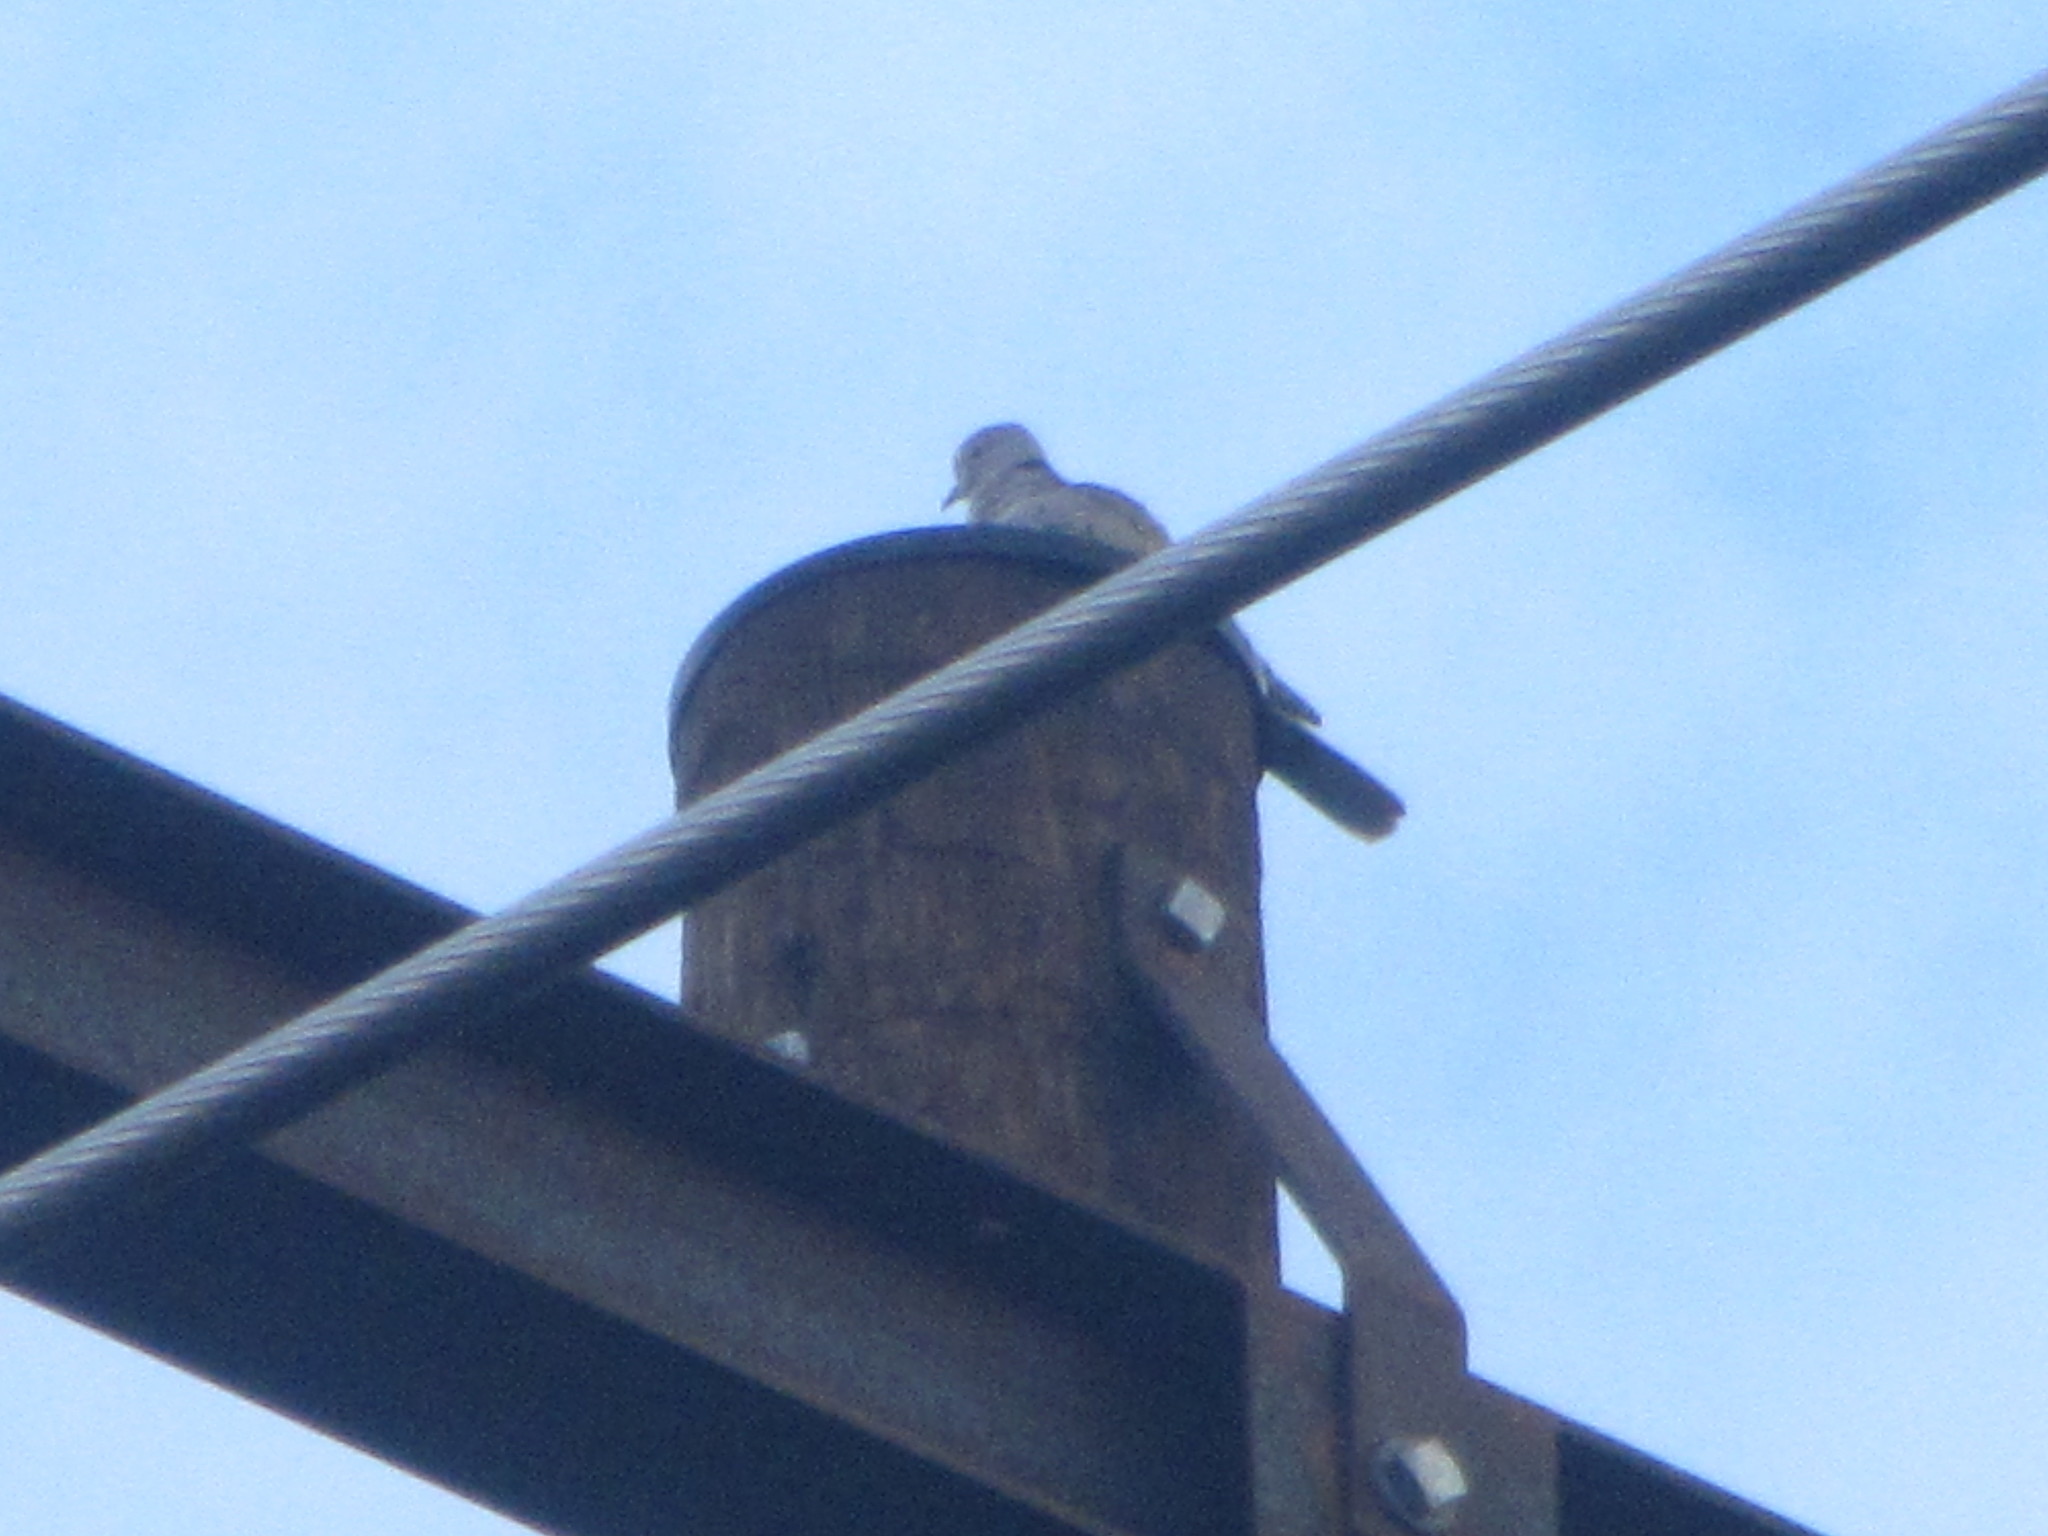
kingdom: Animalia
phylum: Chordata
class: Aves
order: Columbiformes
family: Columbidae
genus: Streptopelia
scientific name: Streptopelia decaocto
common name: Eurasian collared dove
